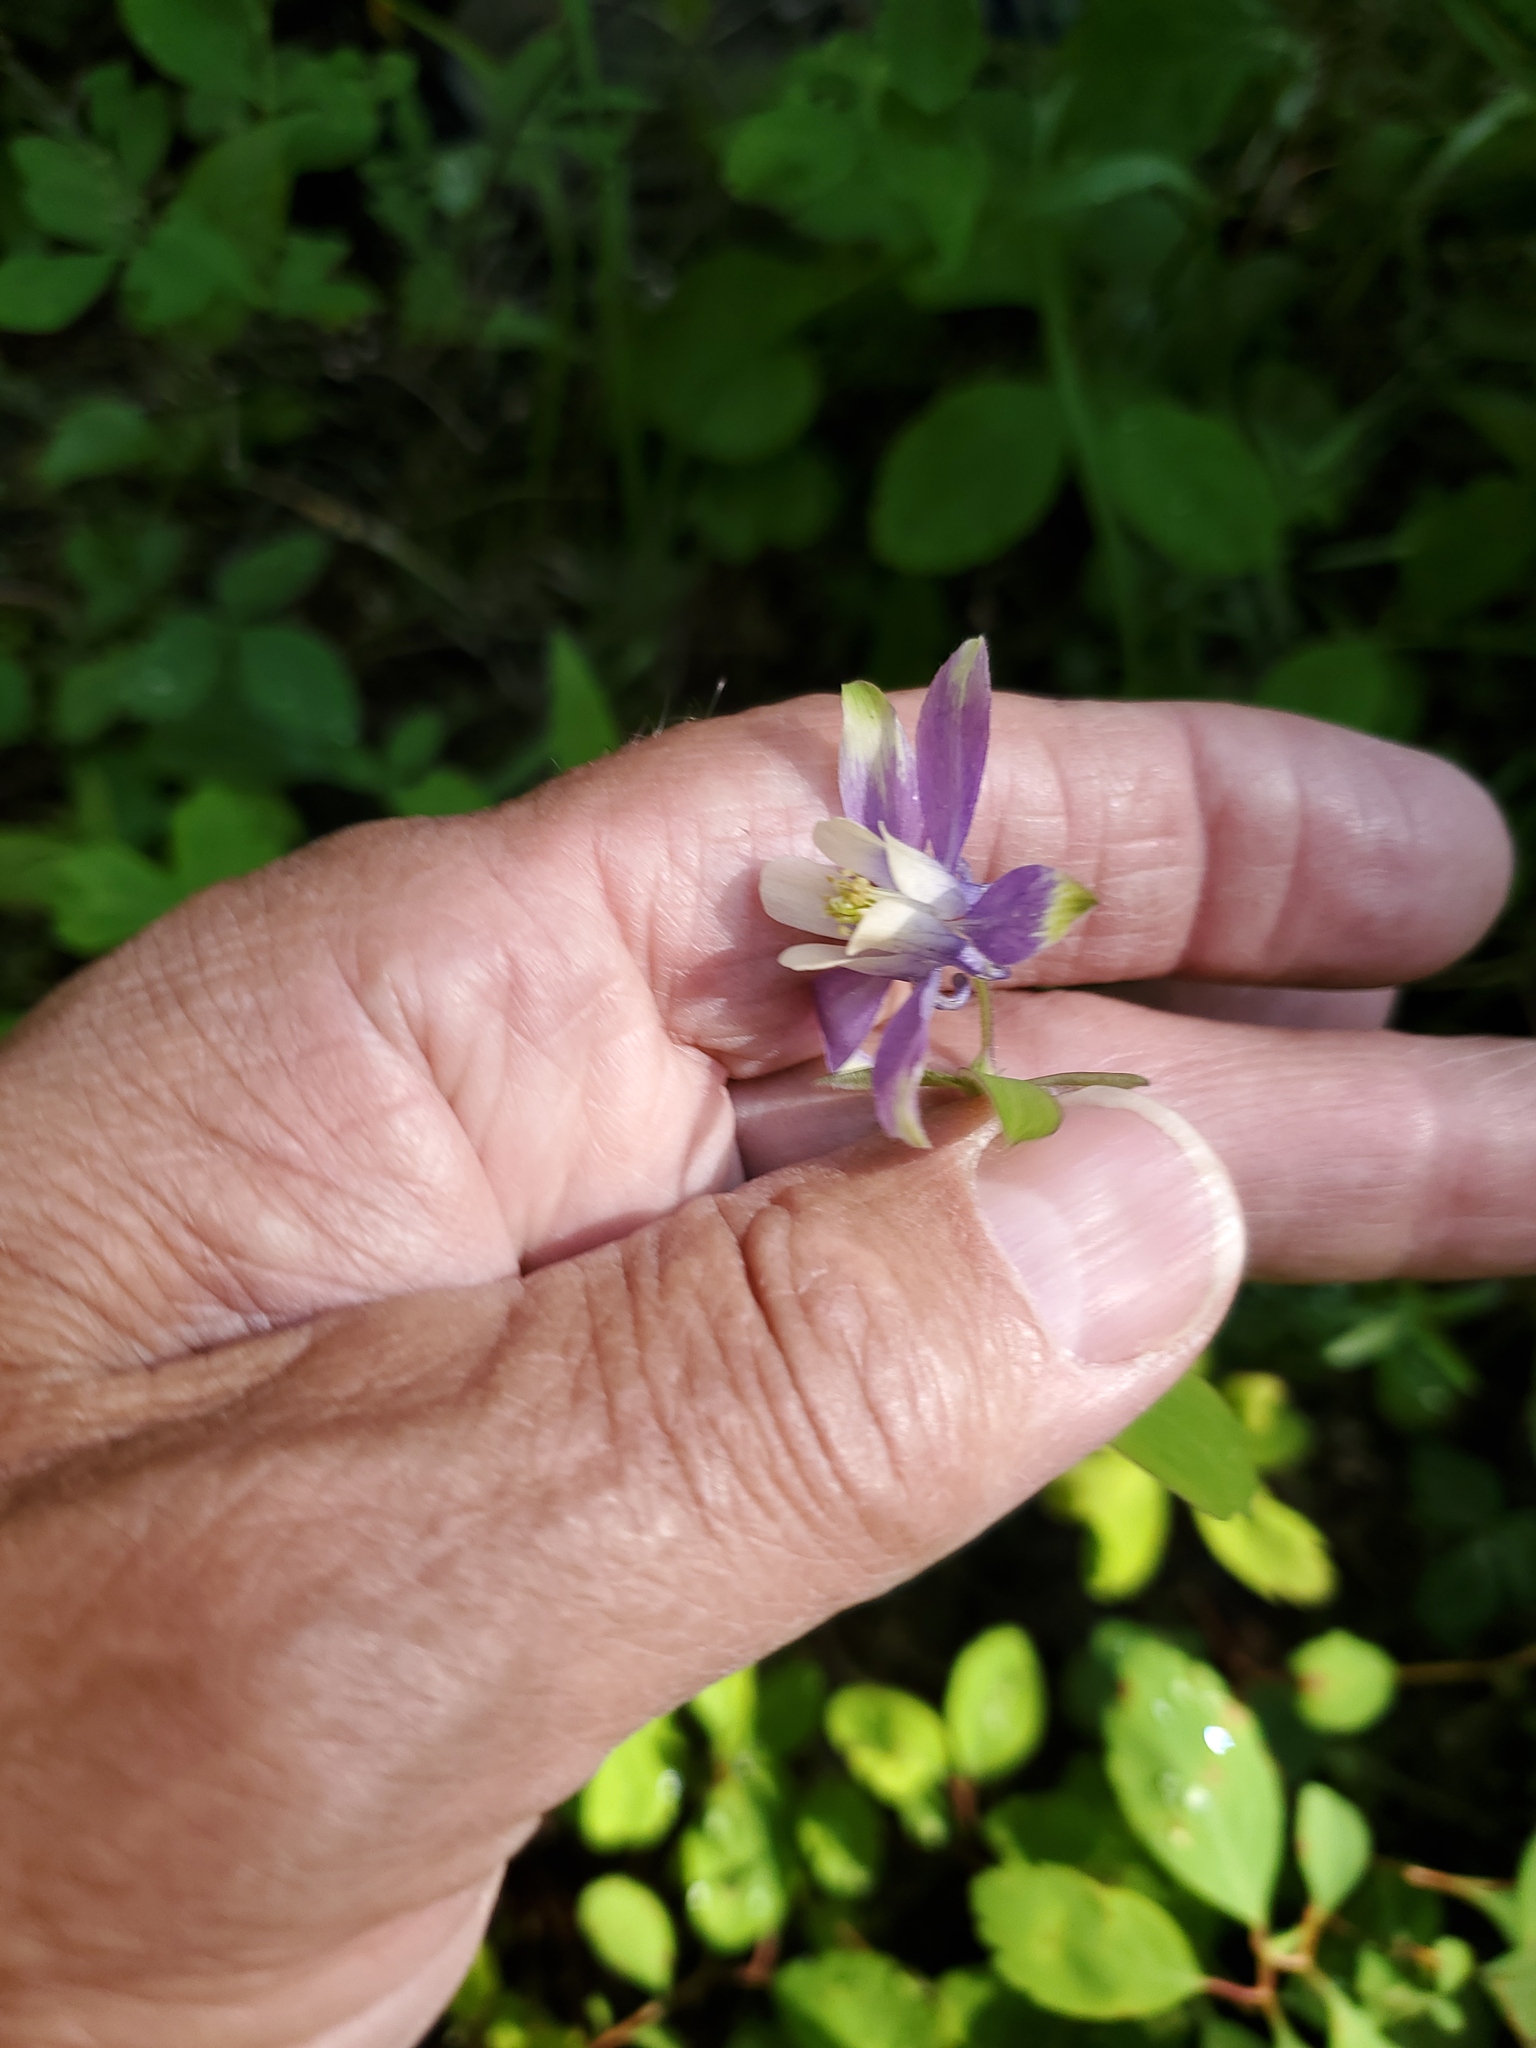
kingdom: Plantae
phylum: Tracheophyta
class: Magnoliopsida
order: Ranunculales
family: Ranunculaceae
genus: Aquilegia
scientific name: Aquilegia brevistyla
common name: Yukon columbine
